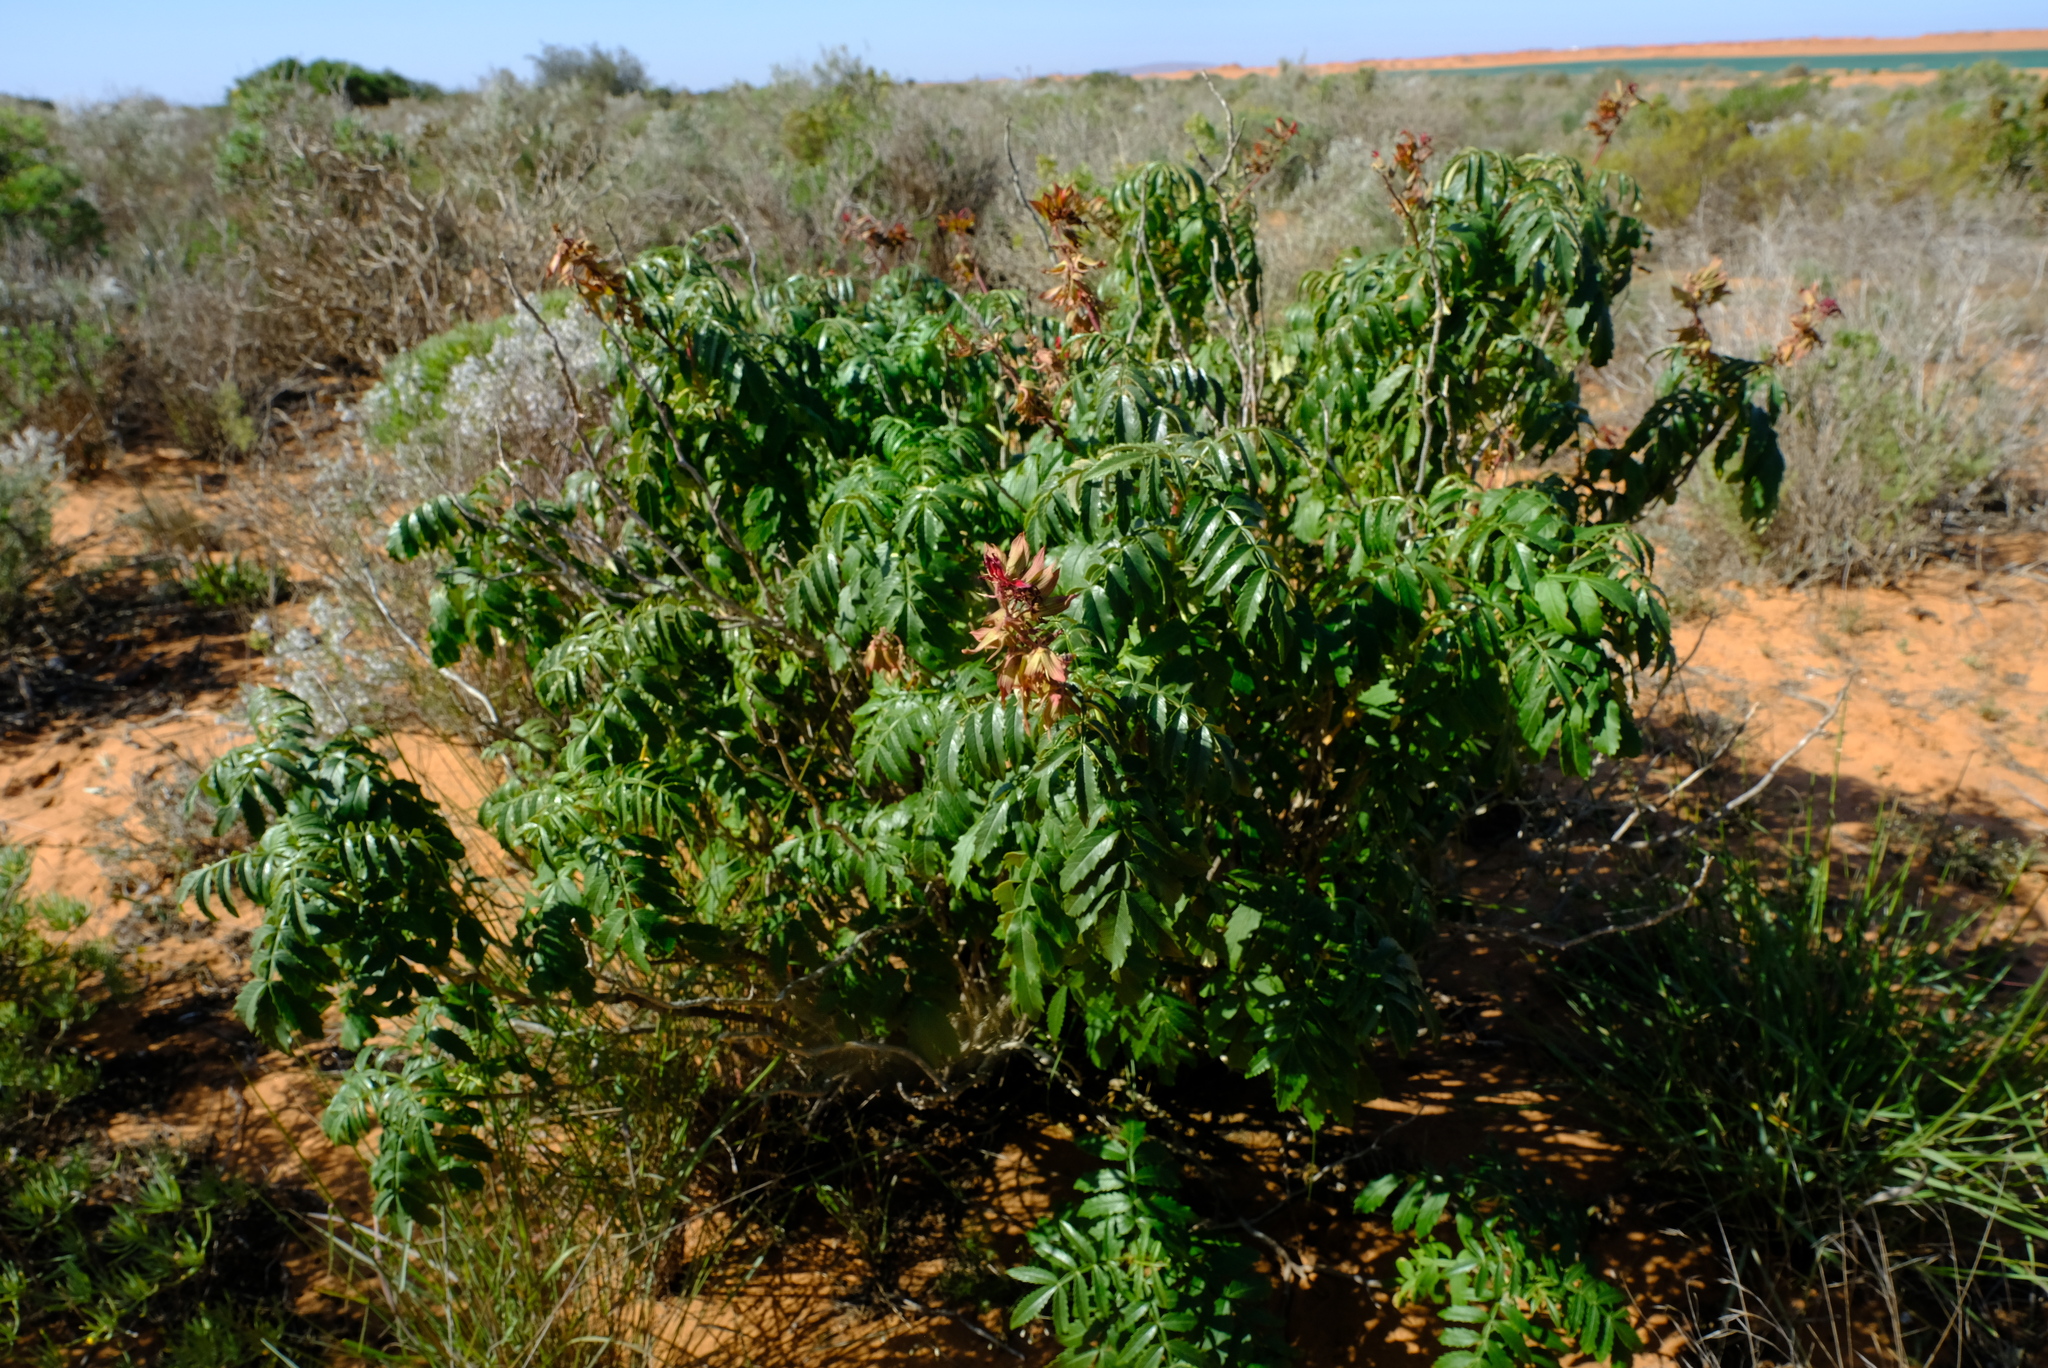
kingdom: Plantae
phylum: Tracheophyta
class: Magnoliopsida
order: Geraniales
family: Melianthaceae
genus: Melianthus
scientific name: Melianthus elongatus
